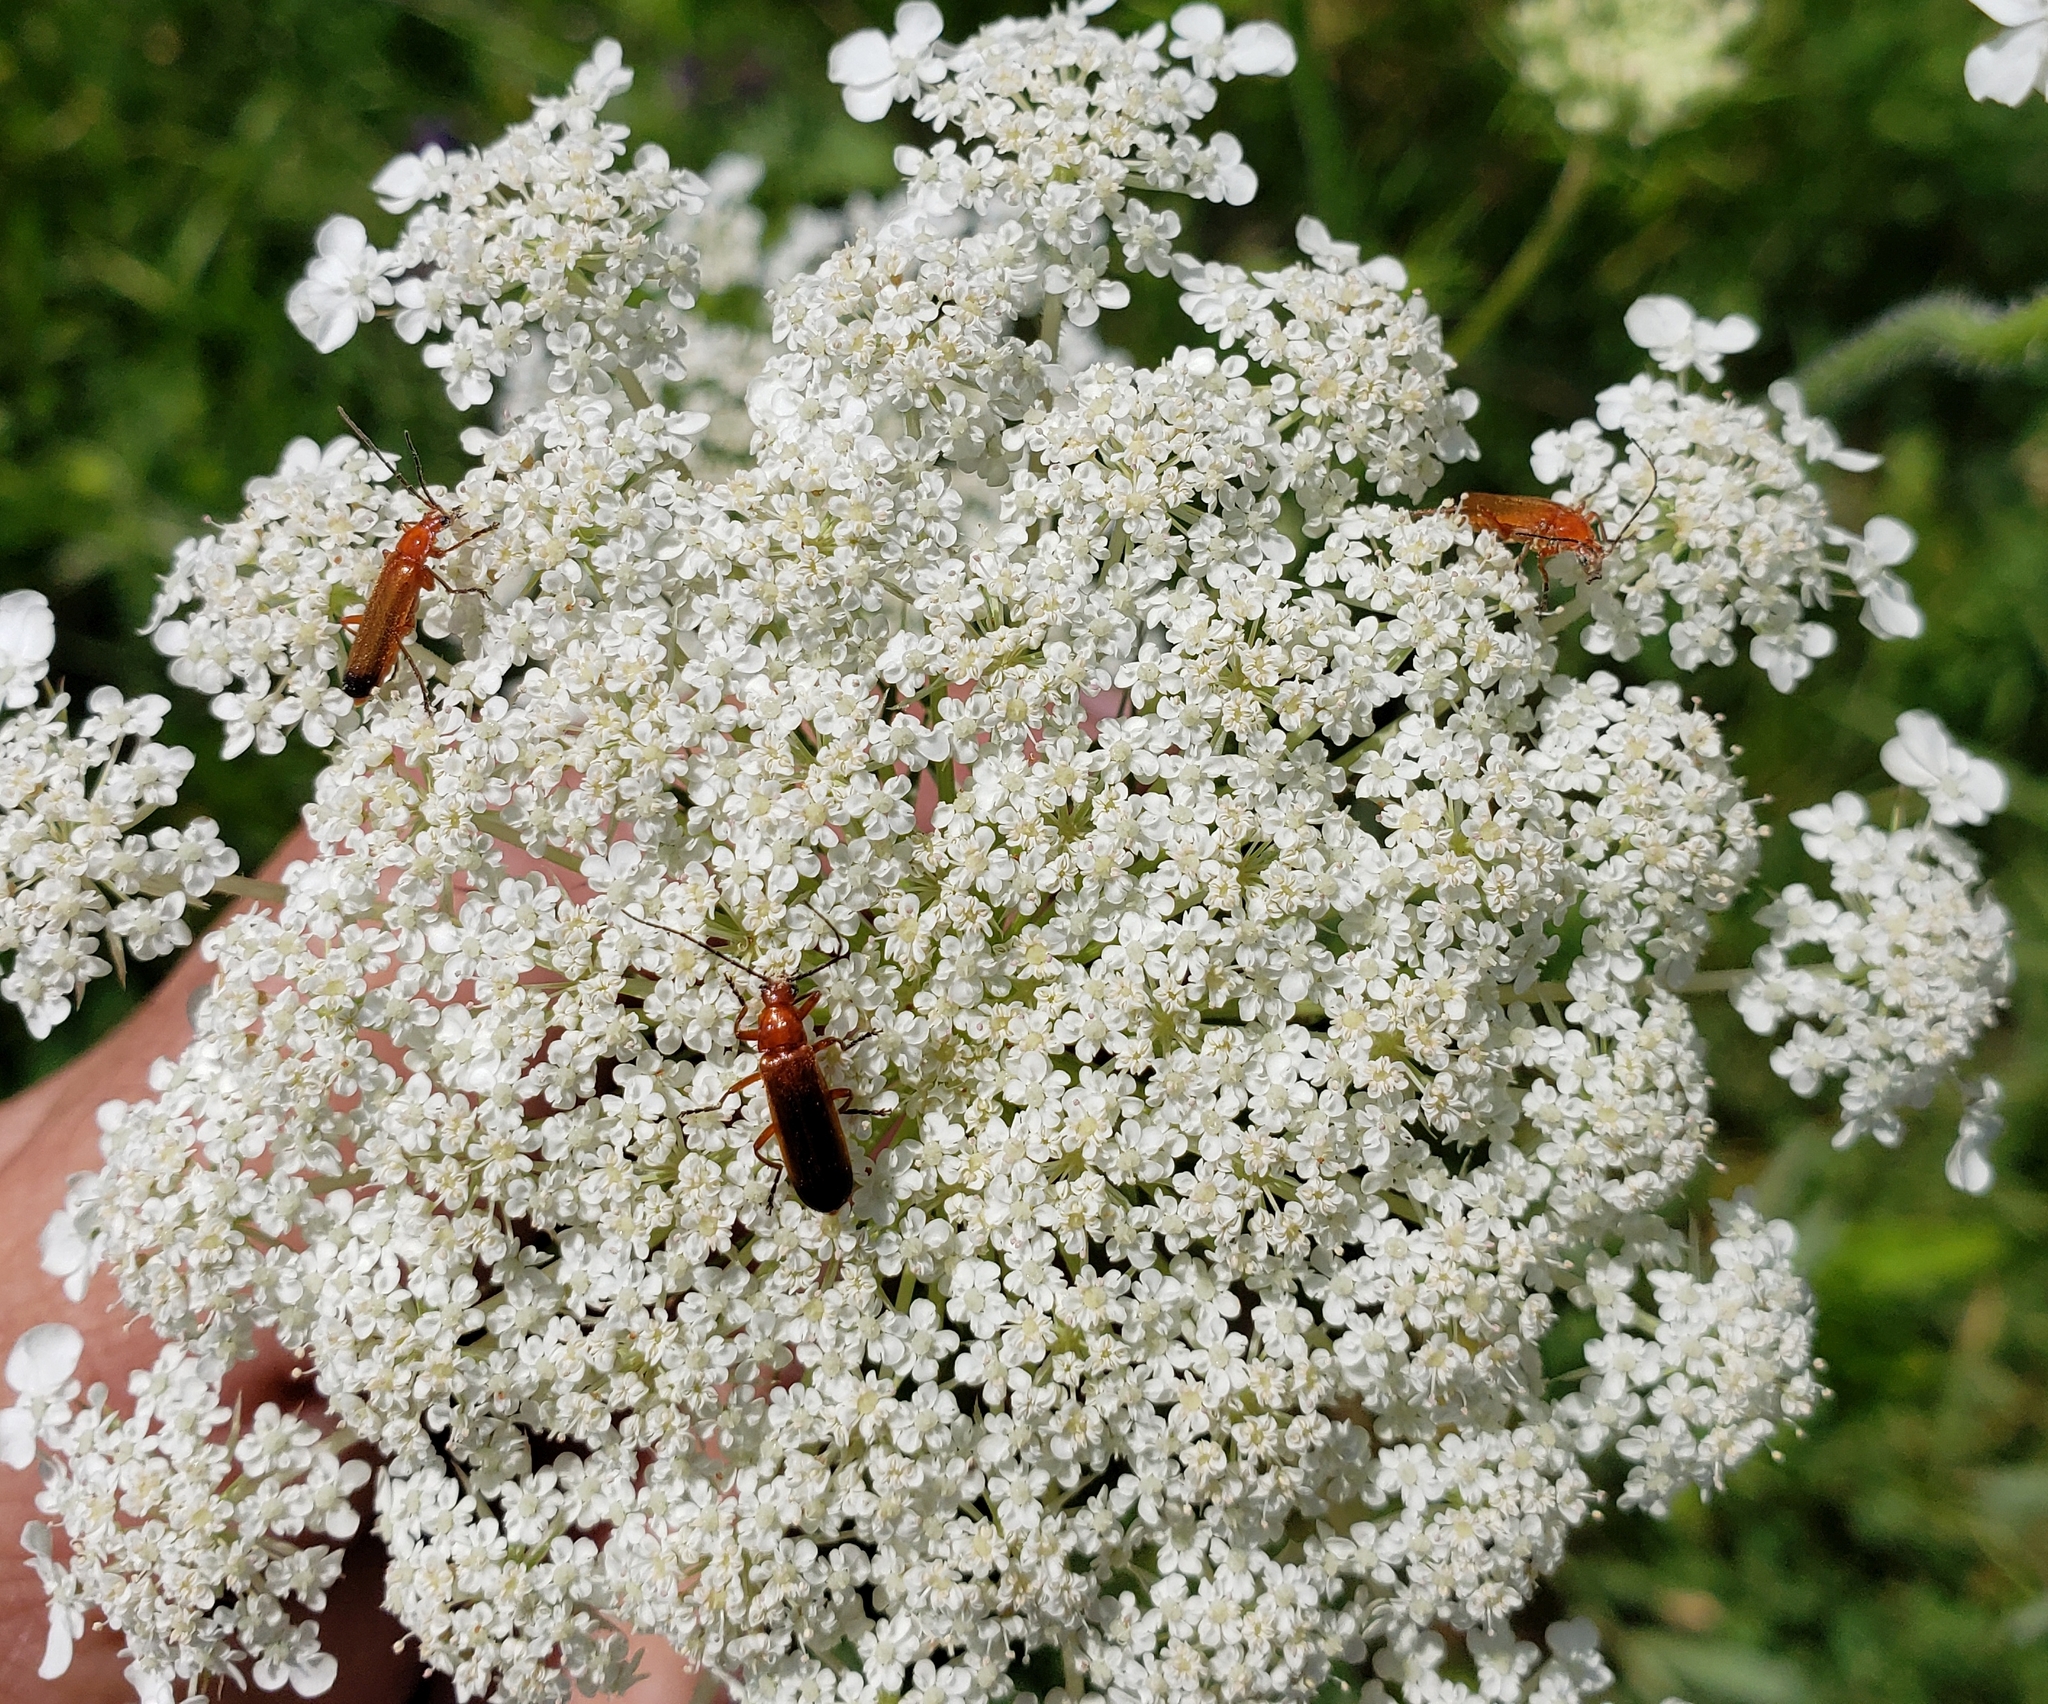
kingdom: Animalia
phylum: Arthropoda
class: Insecta
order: Coleoptera
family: Cantharidae
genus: Rhagonycha
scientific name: Rhagonycha fulva
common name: Common red soldier beetle
